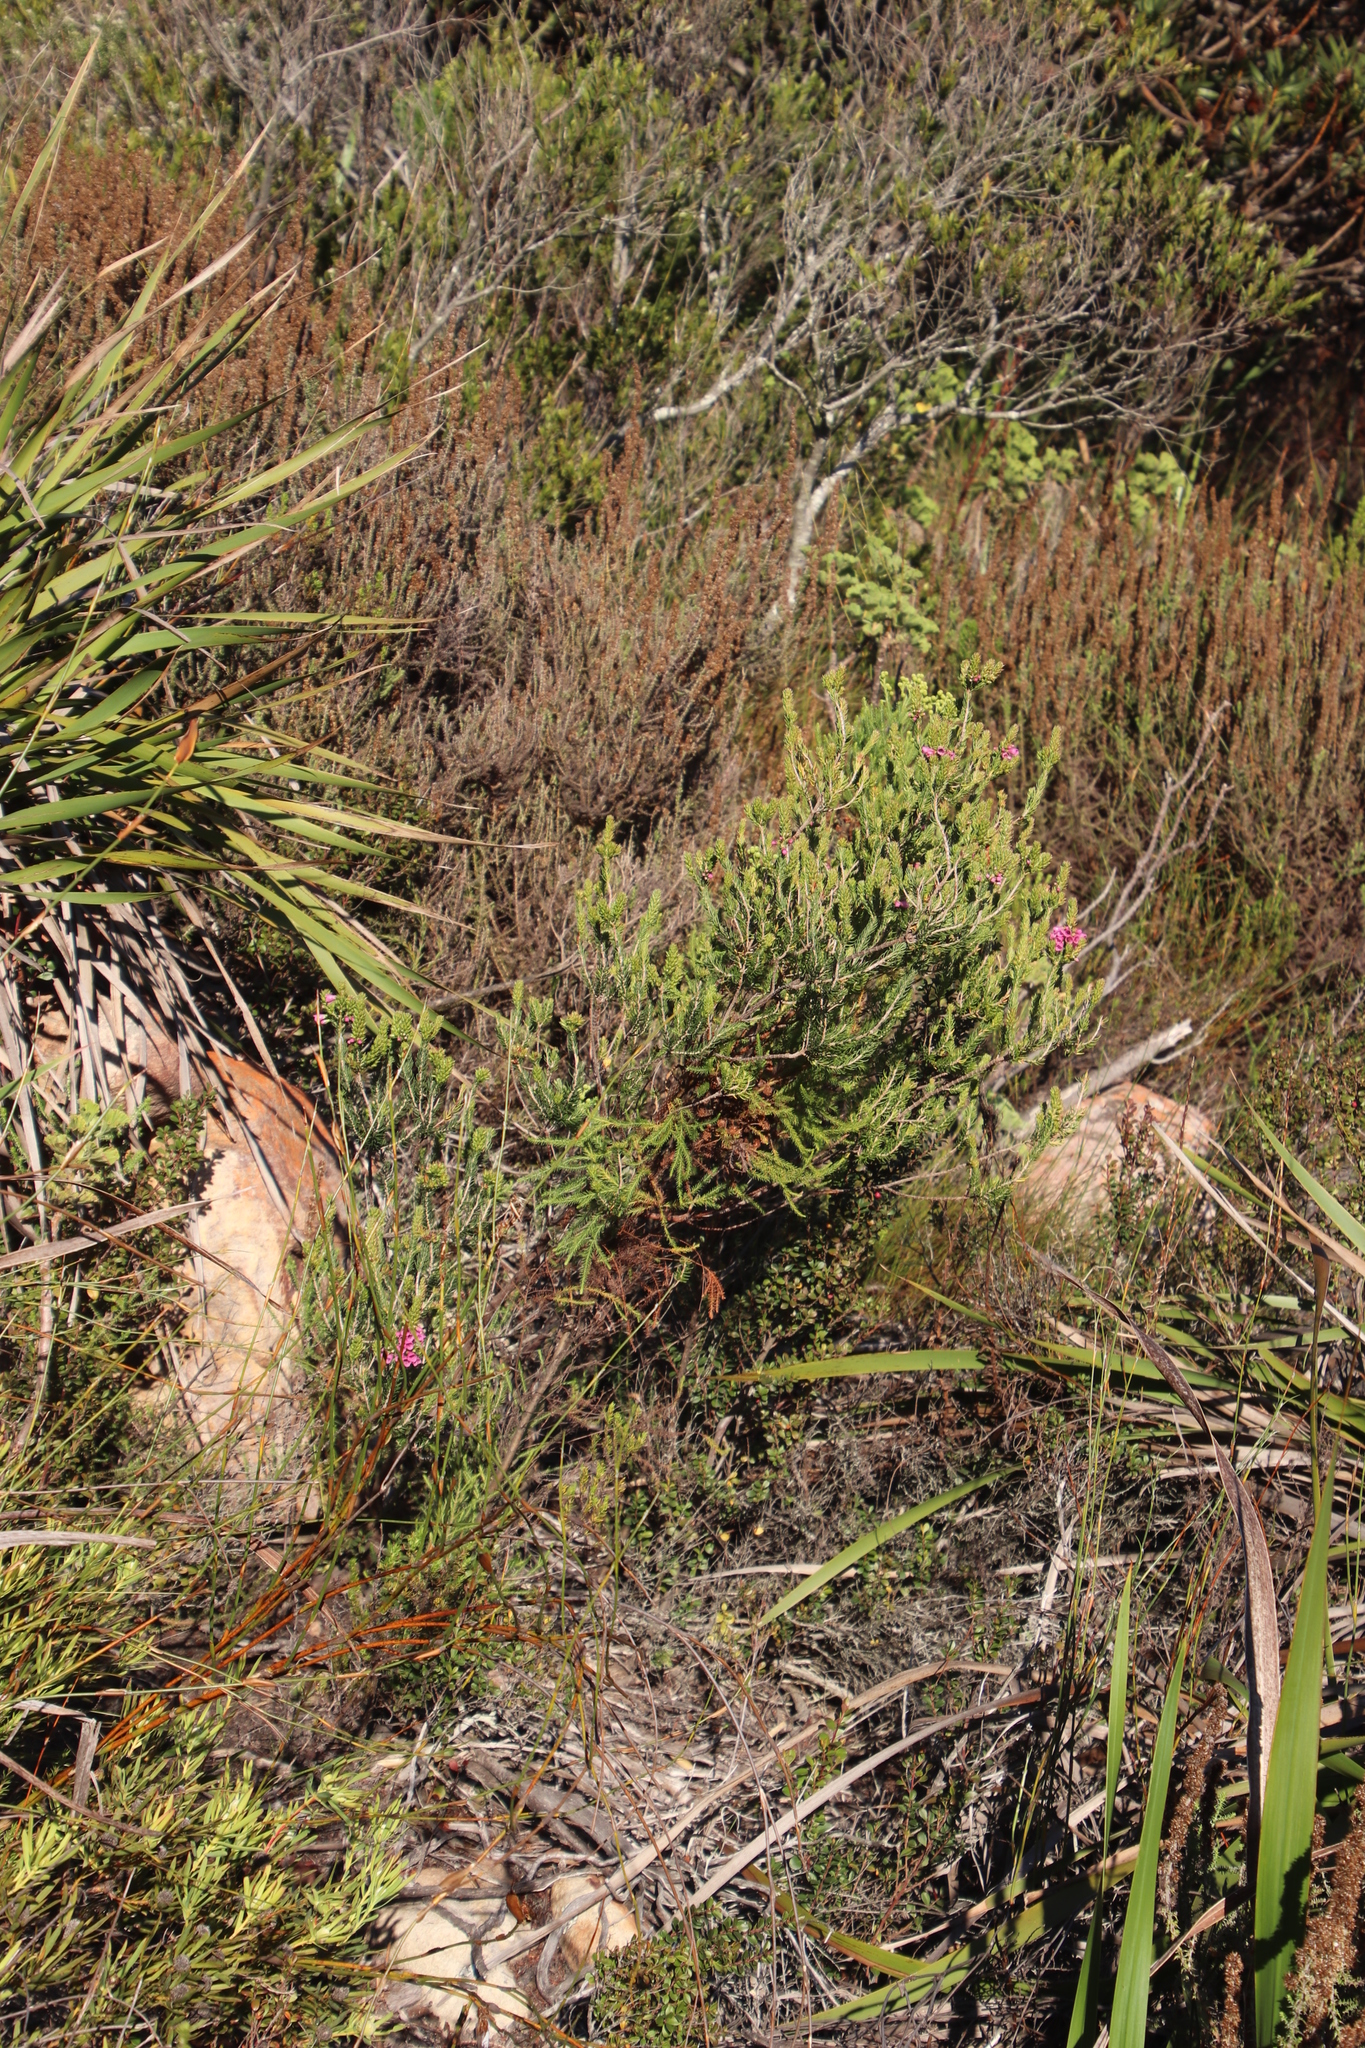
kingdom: Plantae
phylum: Tracheophyta
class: Magnoliopsida
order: Ericales
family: Ericaceae
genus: Erica
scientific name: Erica abietina
